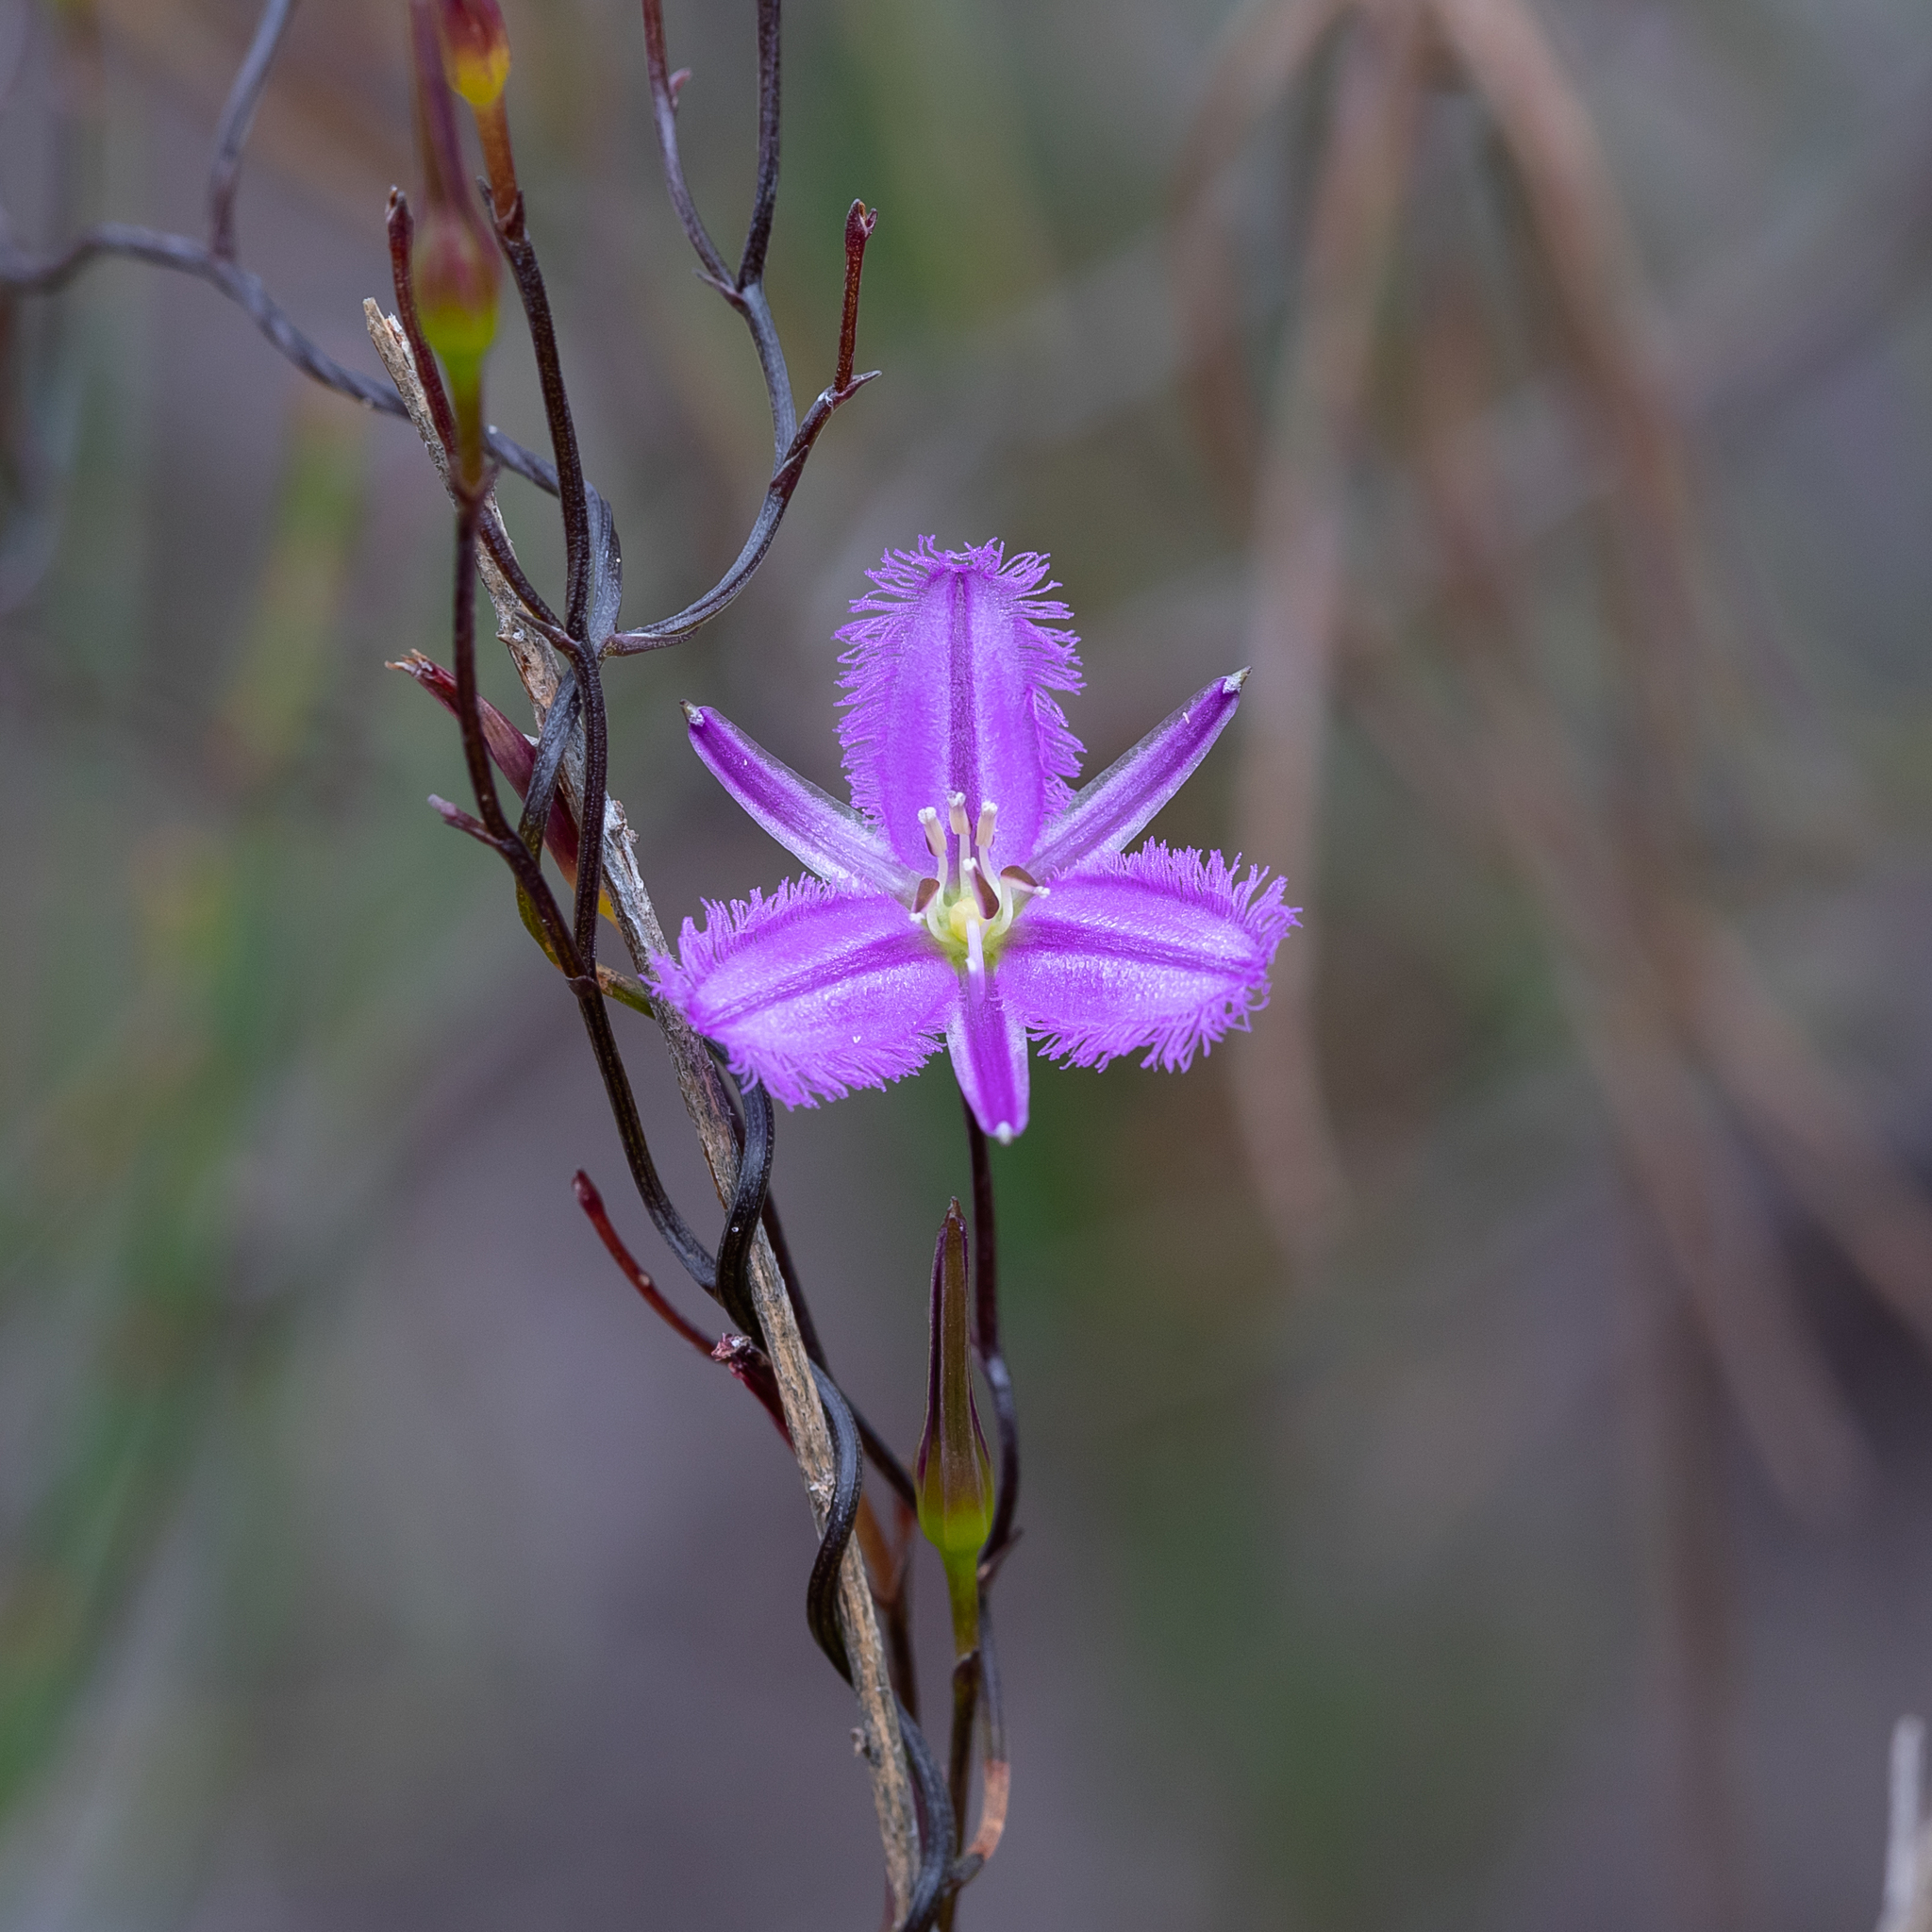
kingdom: Plantae
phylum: Tracheophyta
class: Liliopsida
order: Asparagales
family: Asparagaceae
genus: Thysanotus
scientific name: Thysanotus patersonii
